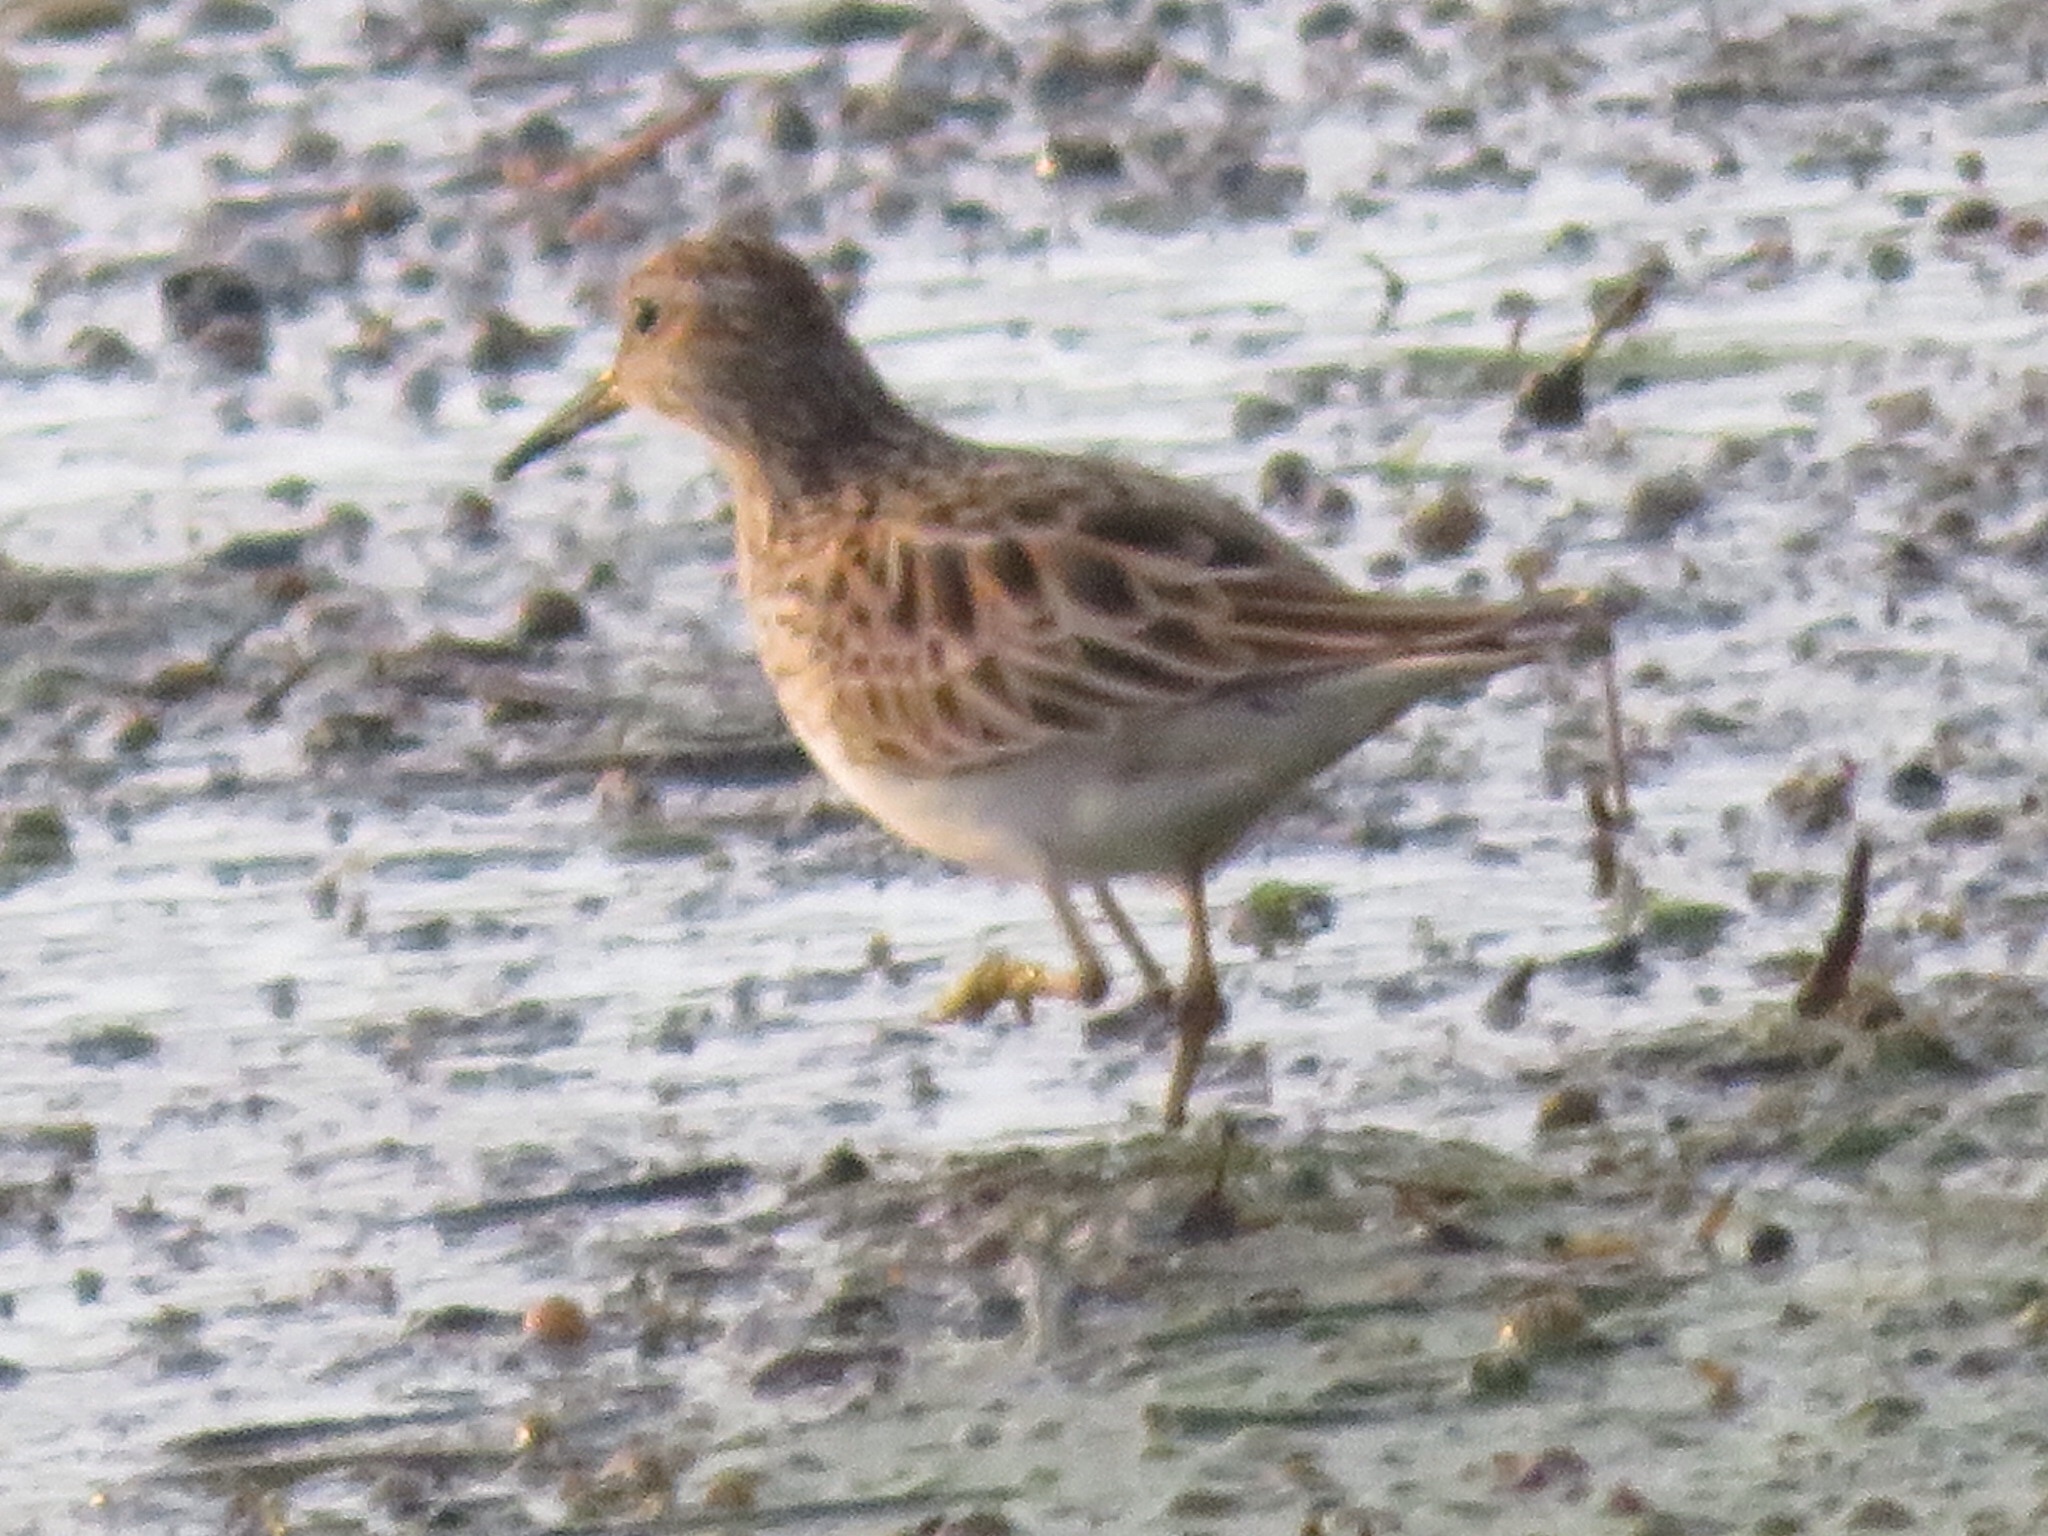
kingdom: Animalia
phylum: Chordata
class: Aves
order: Charadriiformes
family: Scolopacidae
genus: Calidris
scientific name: Calidris melanotos
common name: Pectoral sandpiper
